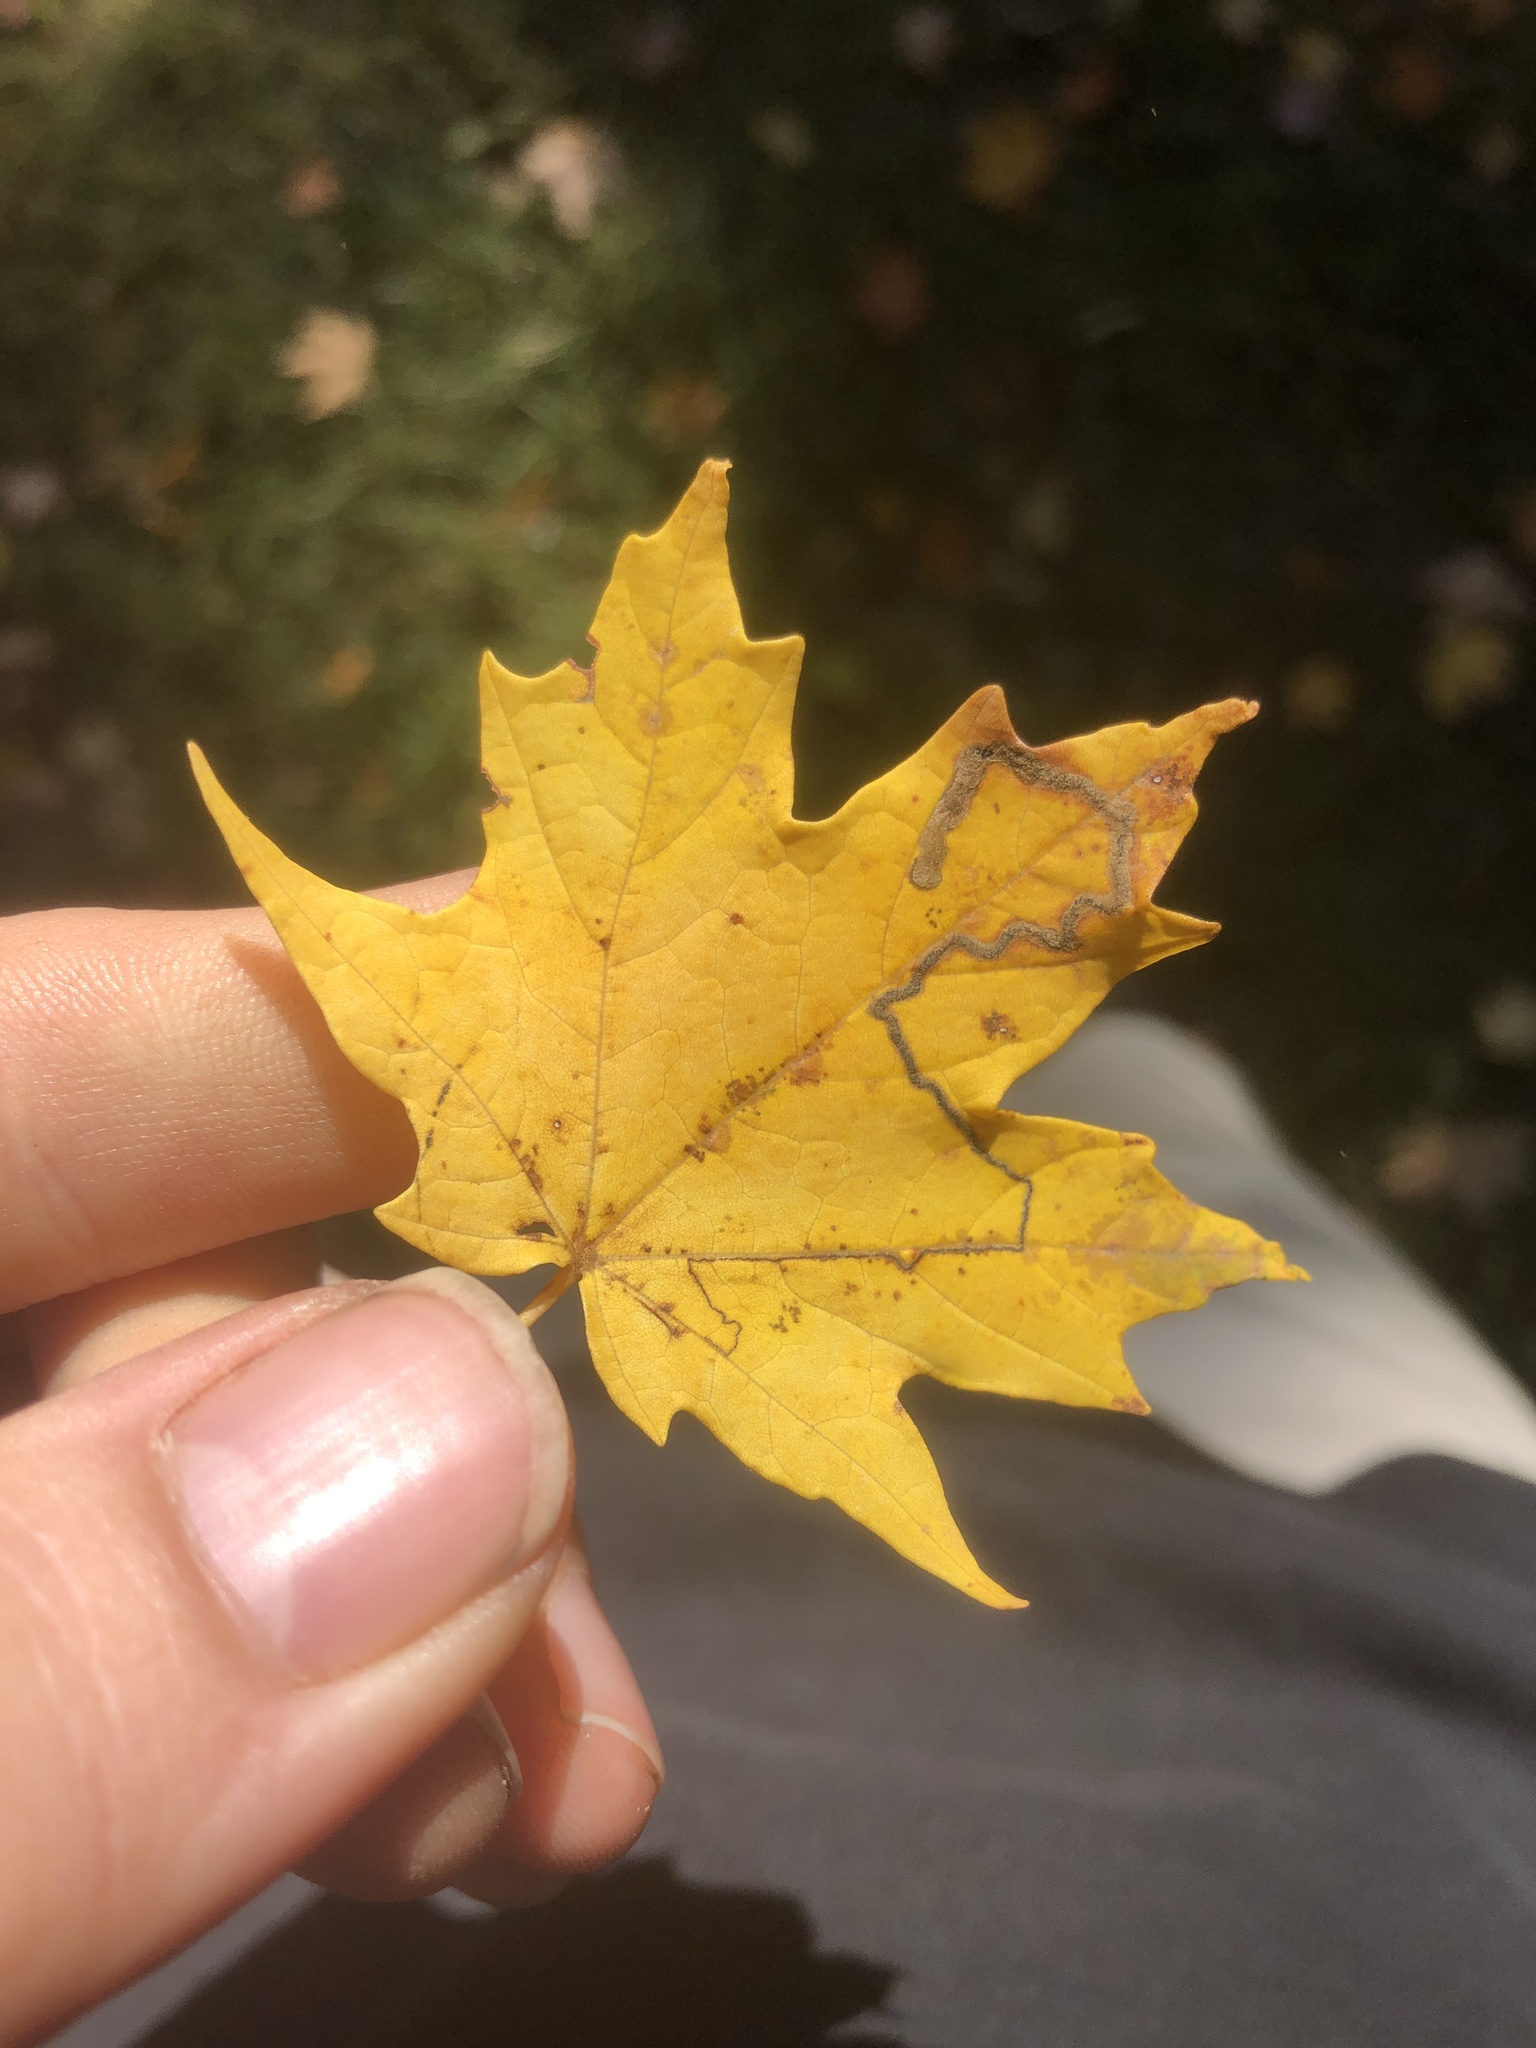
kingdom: Animalia
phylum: Arthropoda
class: Insecta
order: Lepidoptera
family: Nepticulidae
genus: Glaucolepis
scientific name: Glaucolepis saccharella
